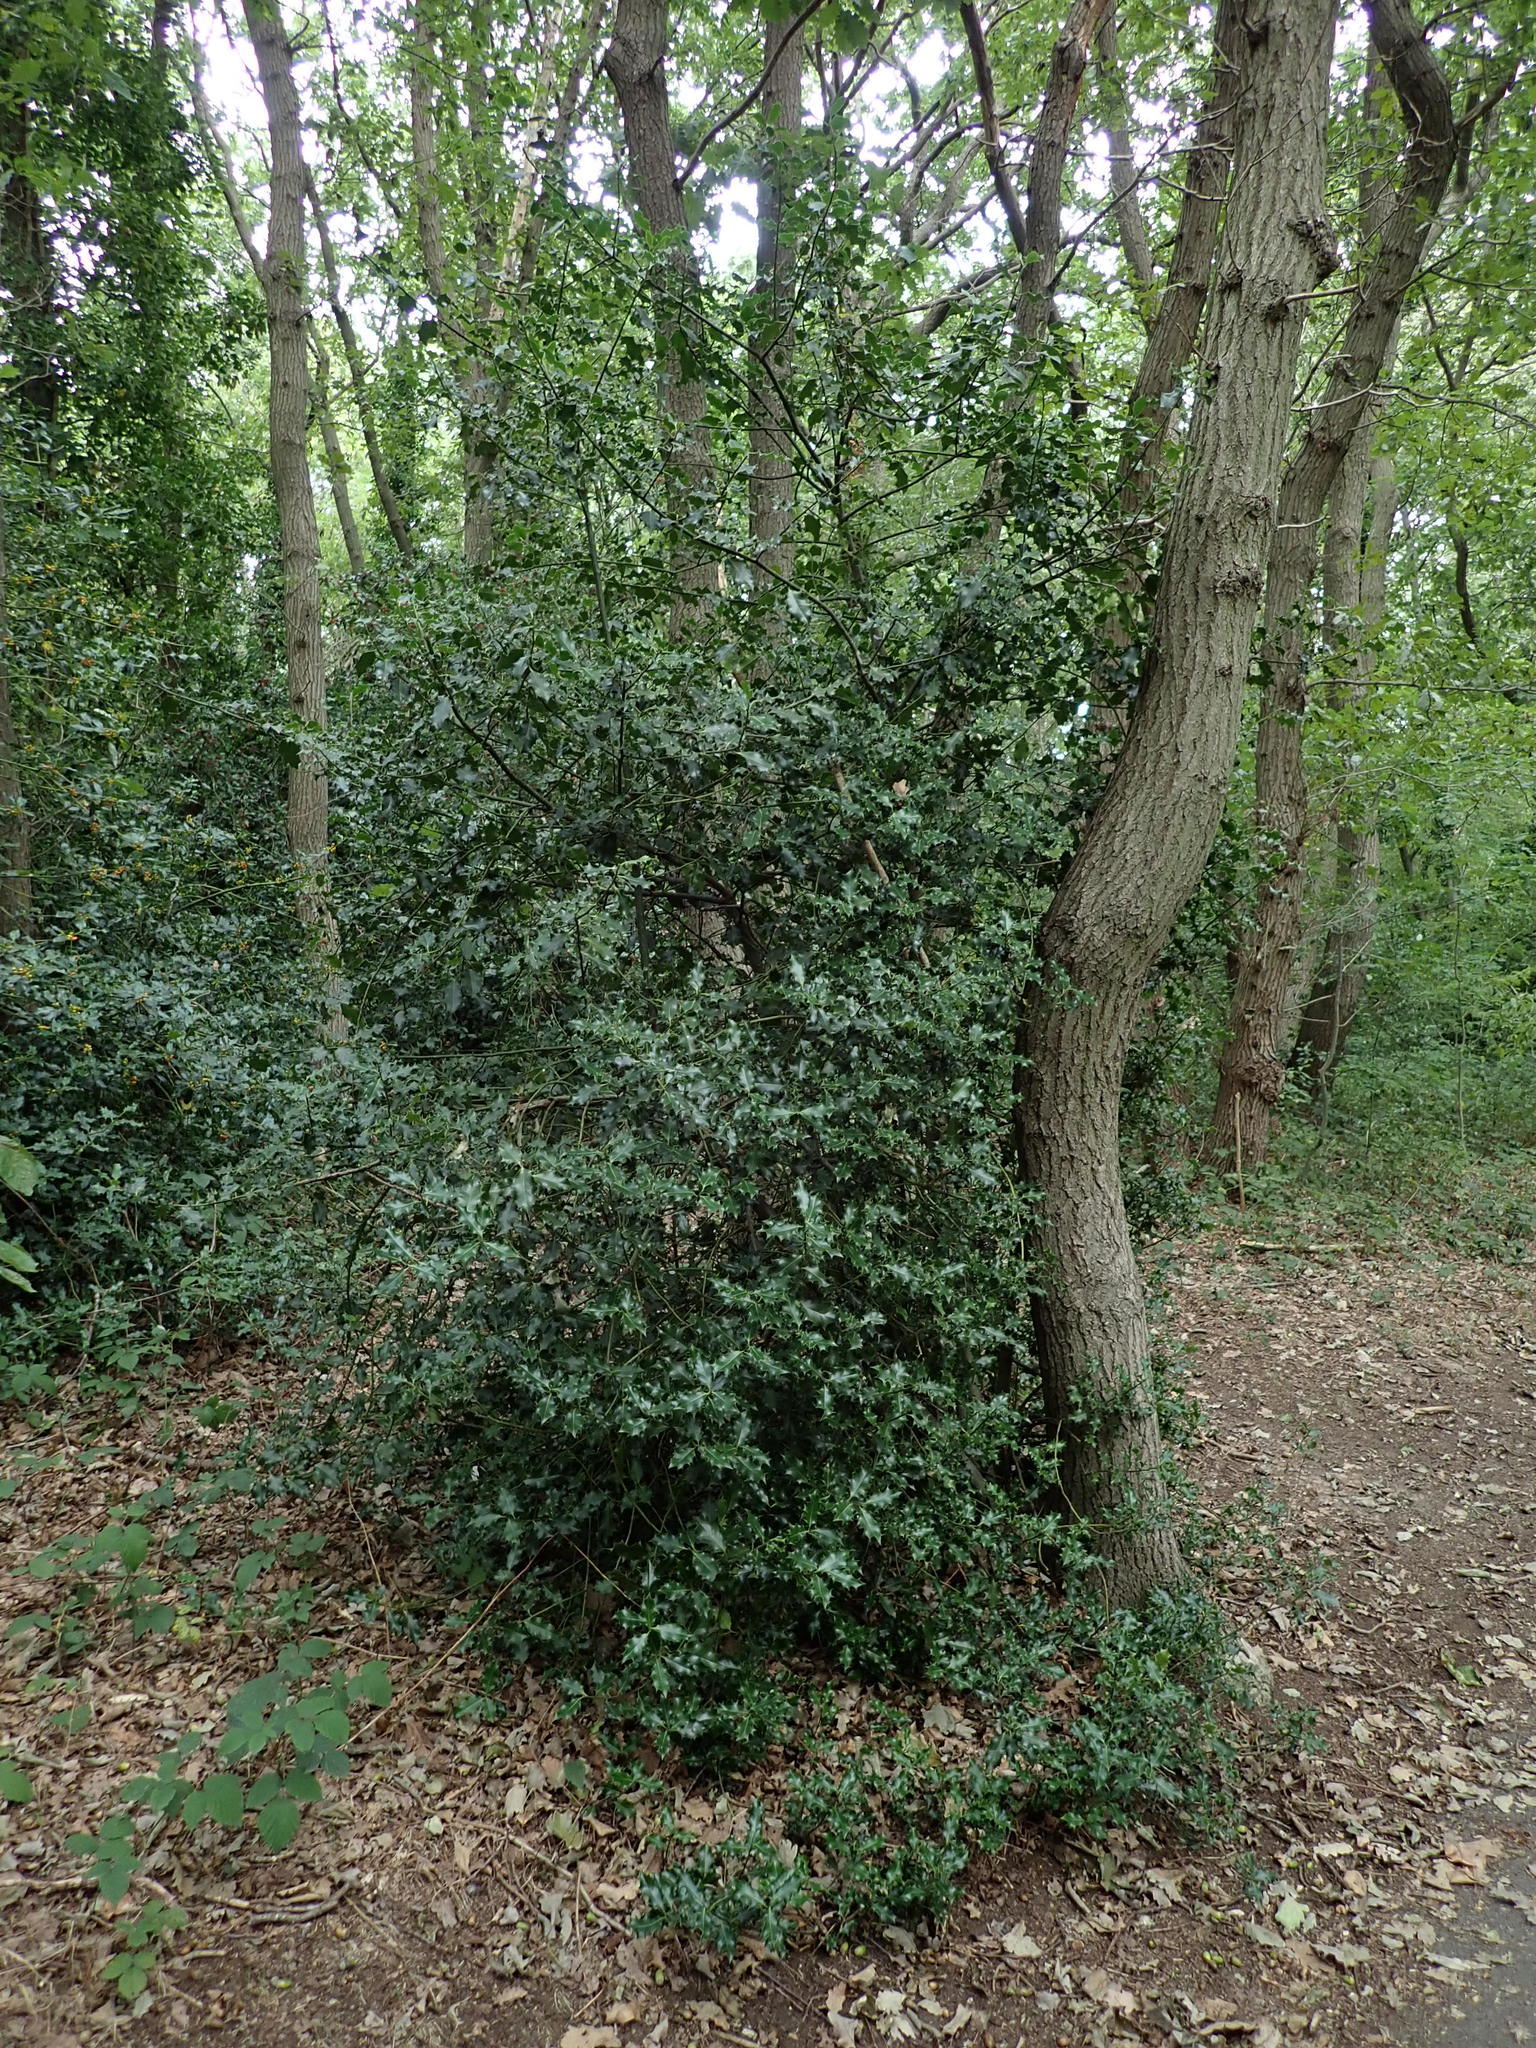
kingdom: Plantae
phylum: Tracheophyta
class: Magnoliopsida
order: Aquifoliales
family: Aquifoliaceae
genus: Ilex
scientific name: Ilex aquifolium
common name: English holly
